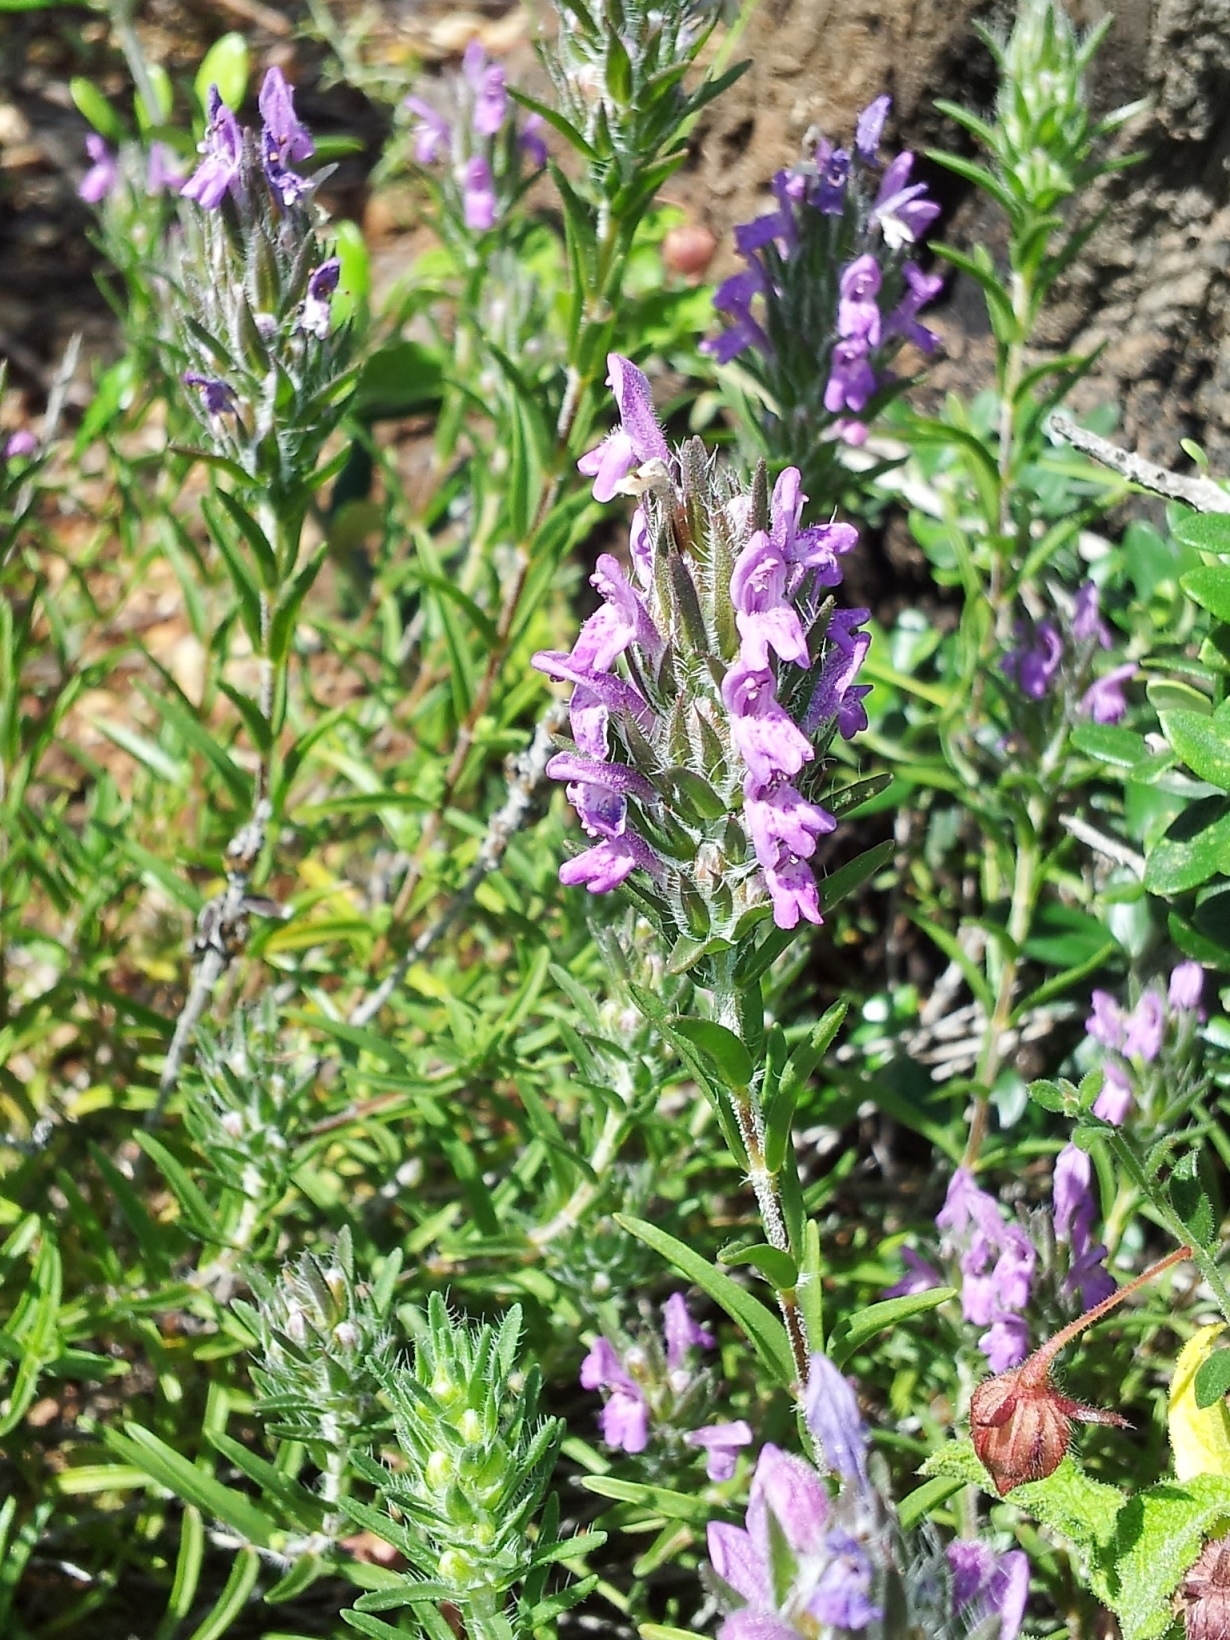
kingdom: Plantae
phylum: Tracheophyta
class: Magnoliopsida
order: Lamiales
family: Lamiaceae
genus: Thymbra
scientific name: Thymbra spicata
